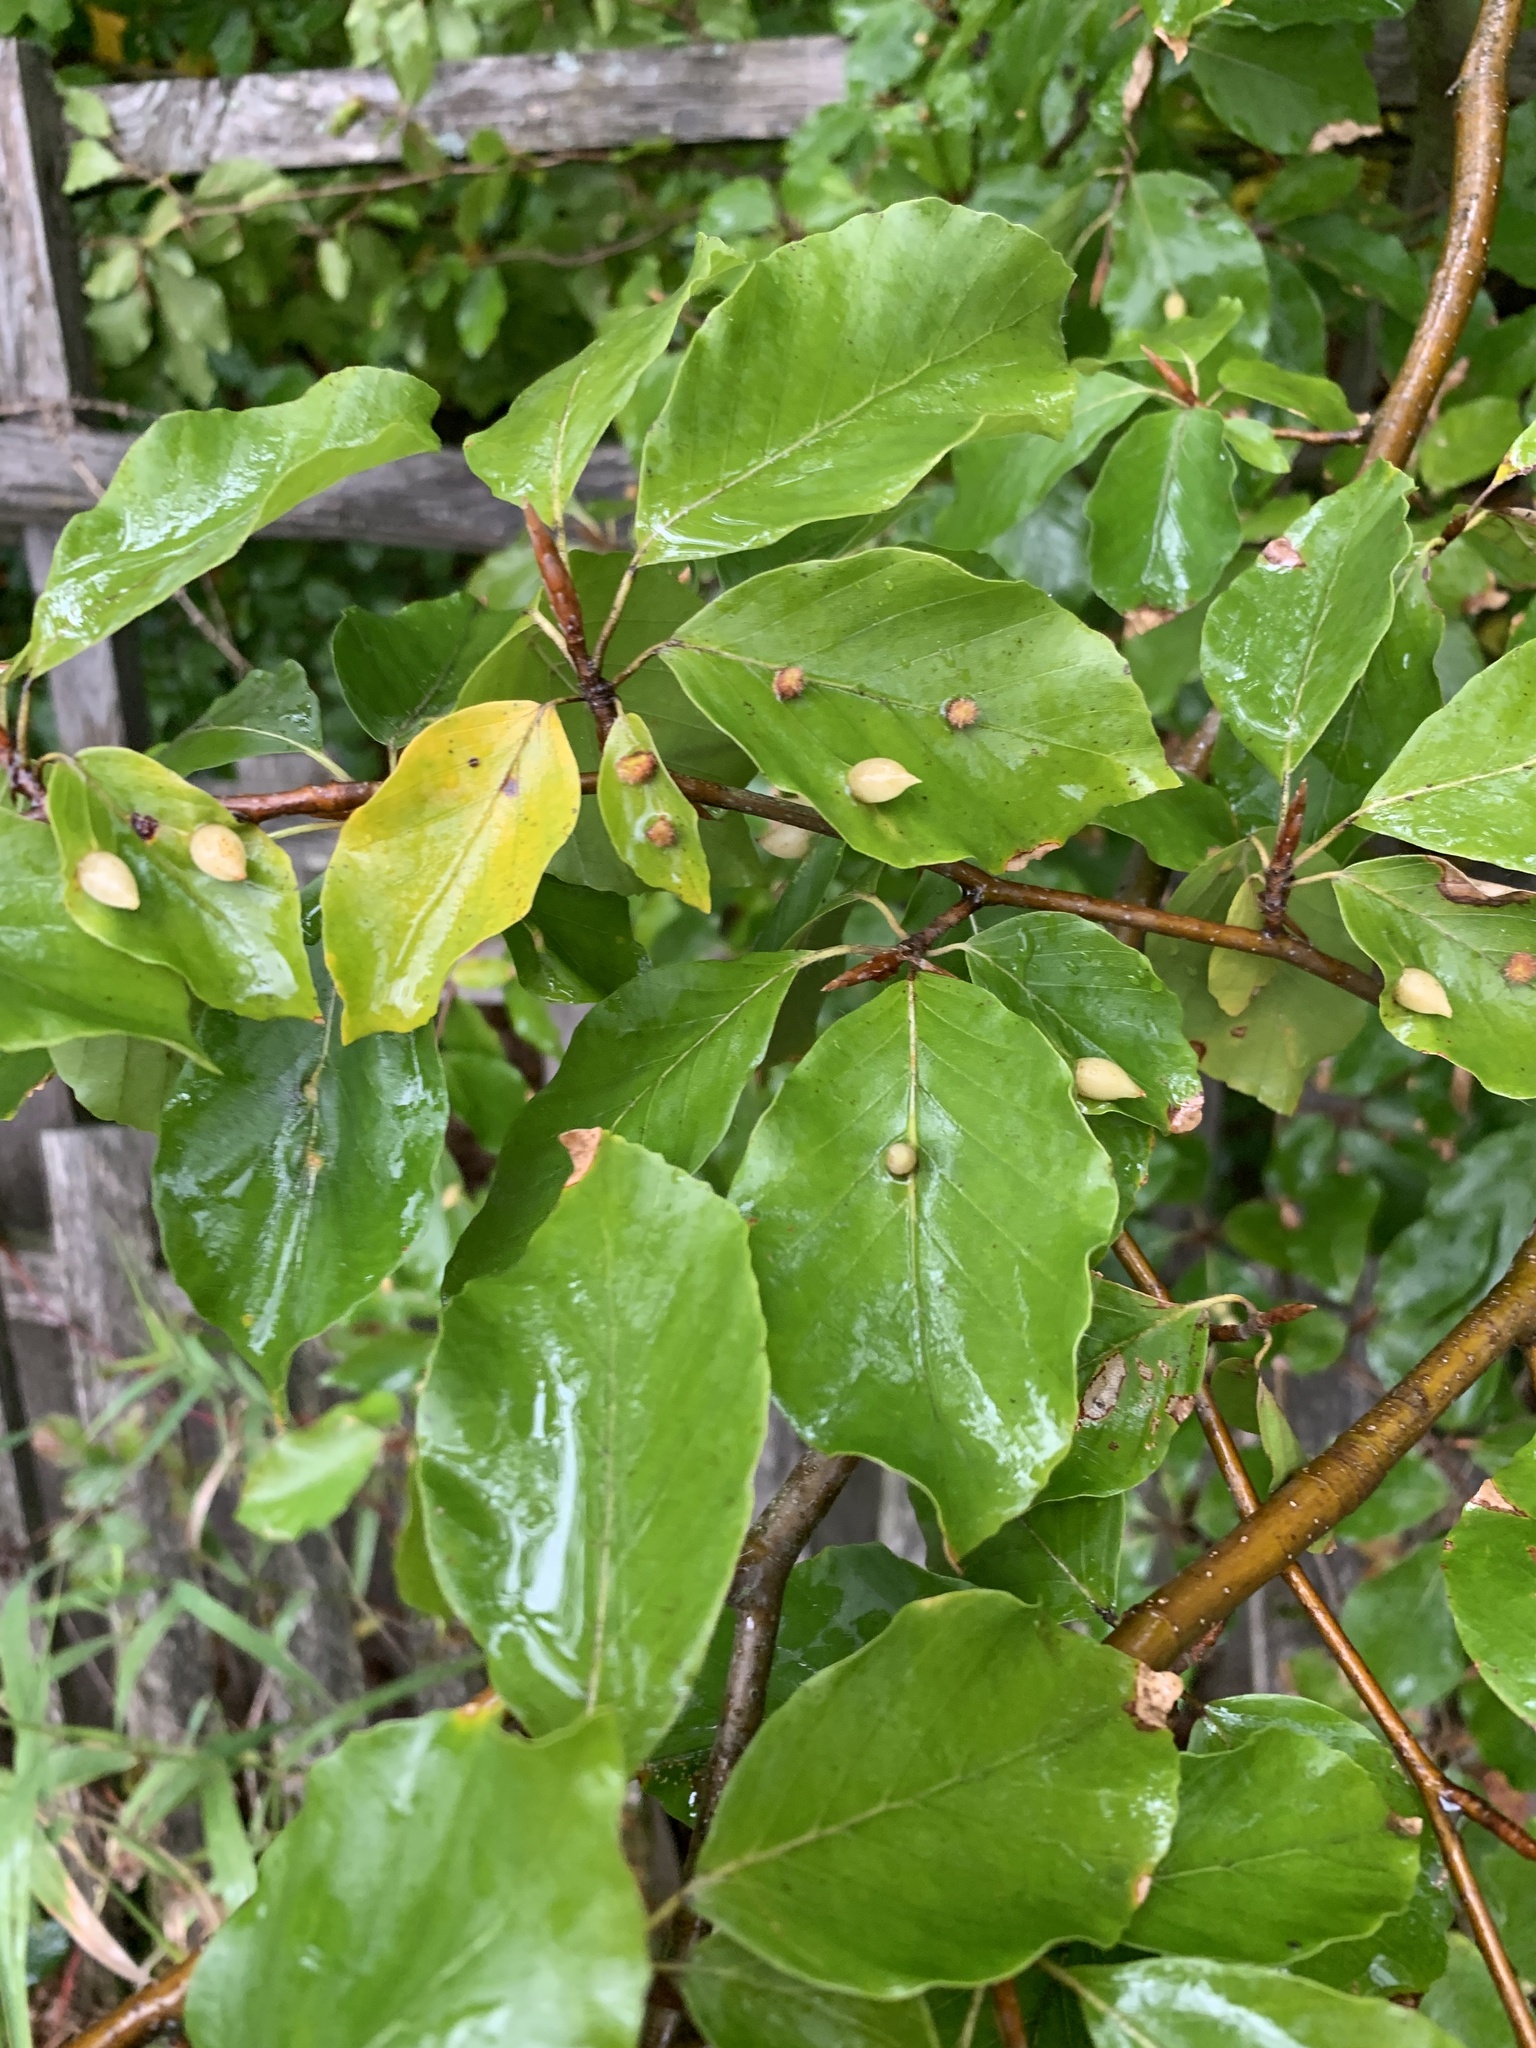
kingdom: Animalia
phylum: Arthropoda
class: Insecta
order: Diptera
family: Cecidomyiidae
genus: Mikiola
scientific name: Mikiola fagi
